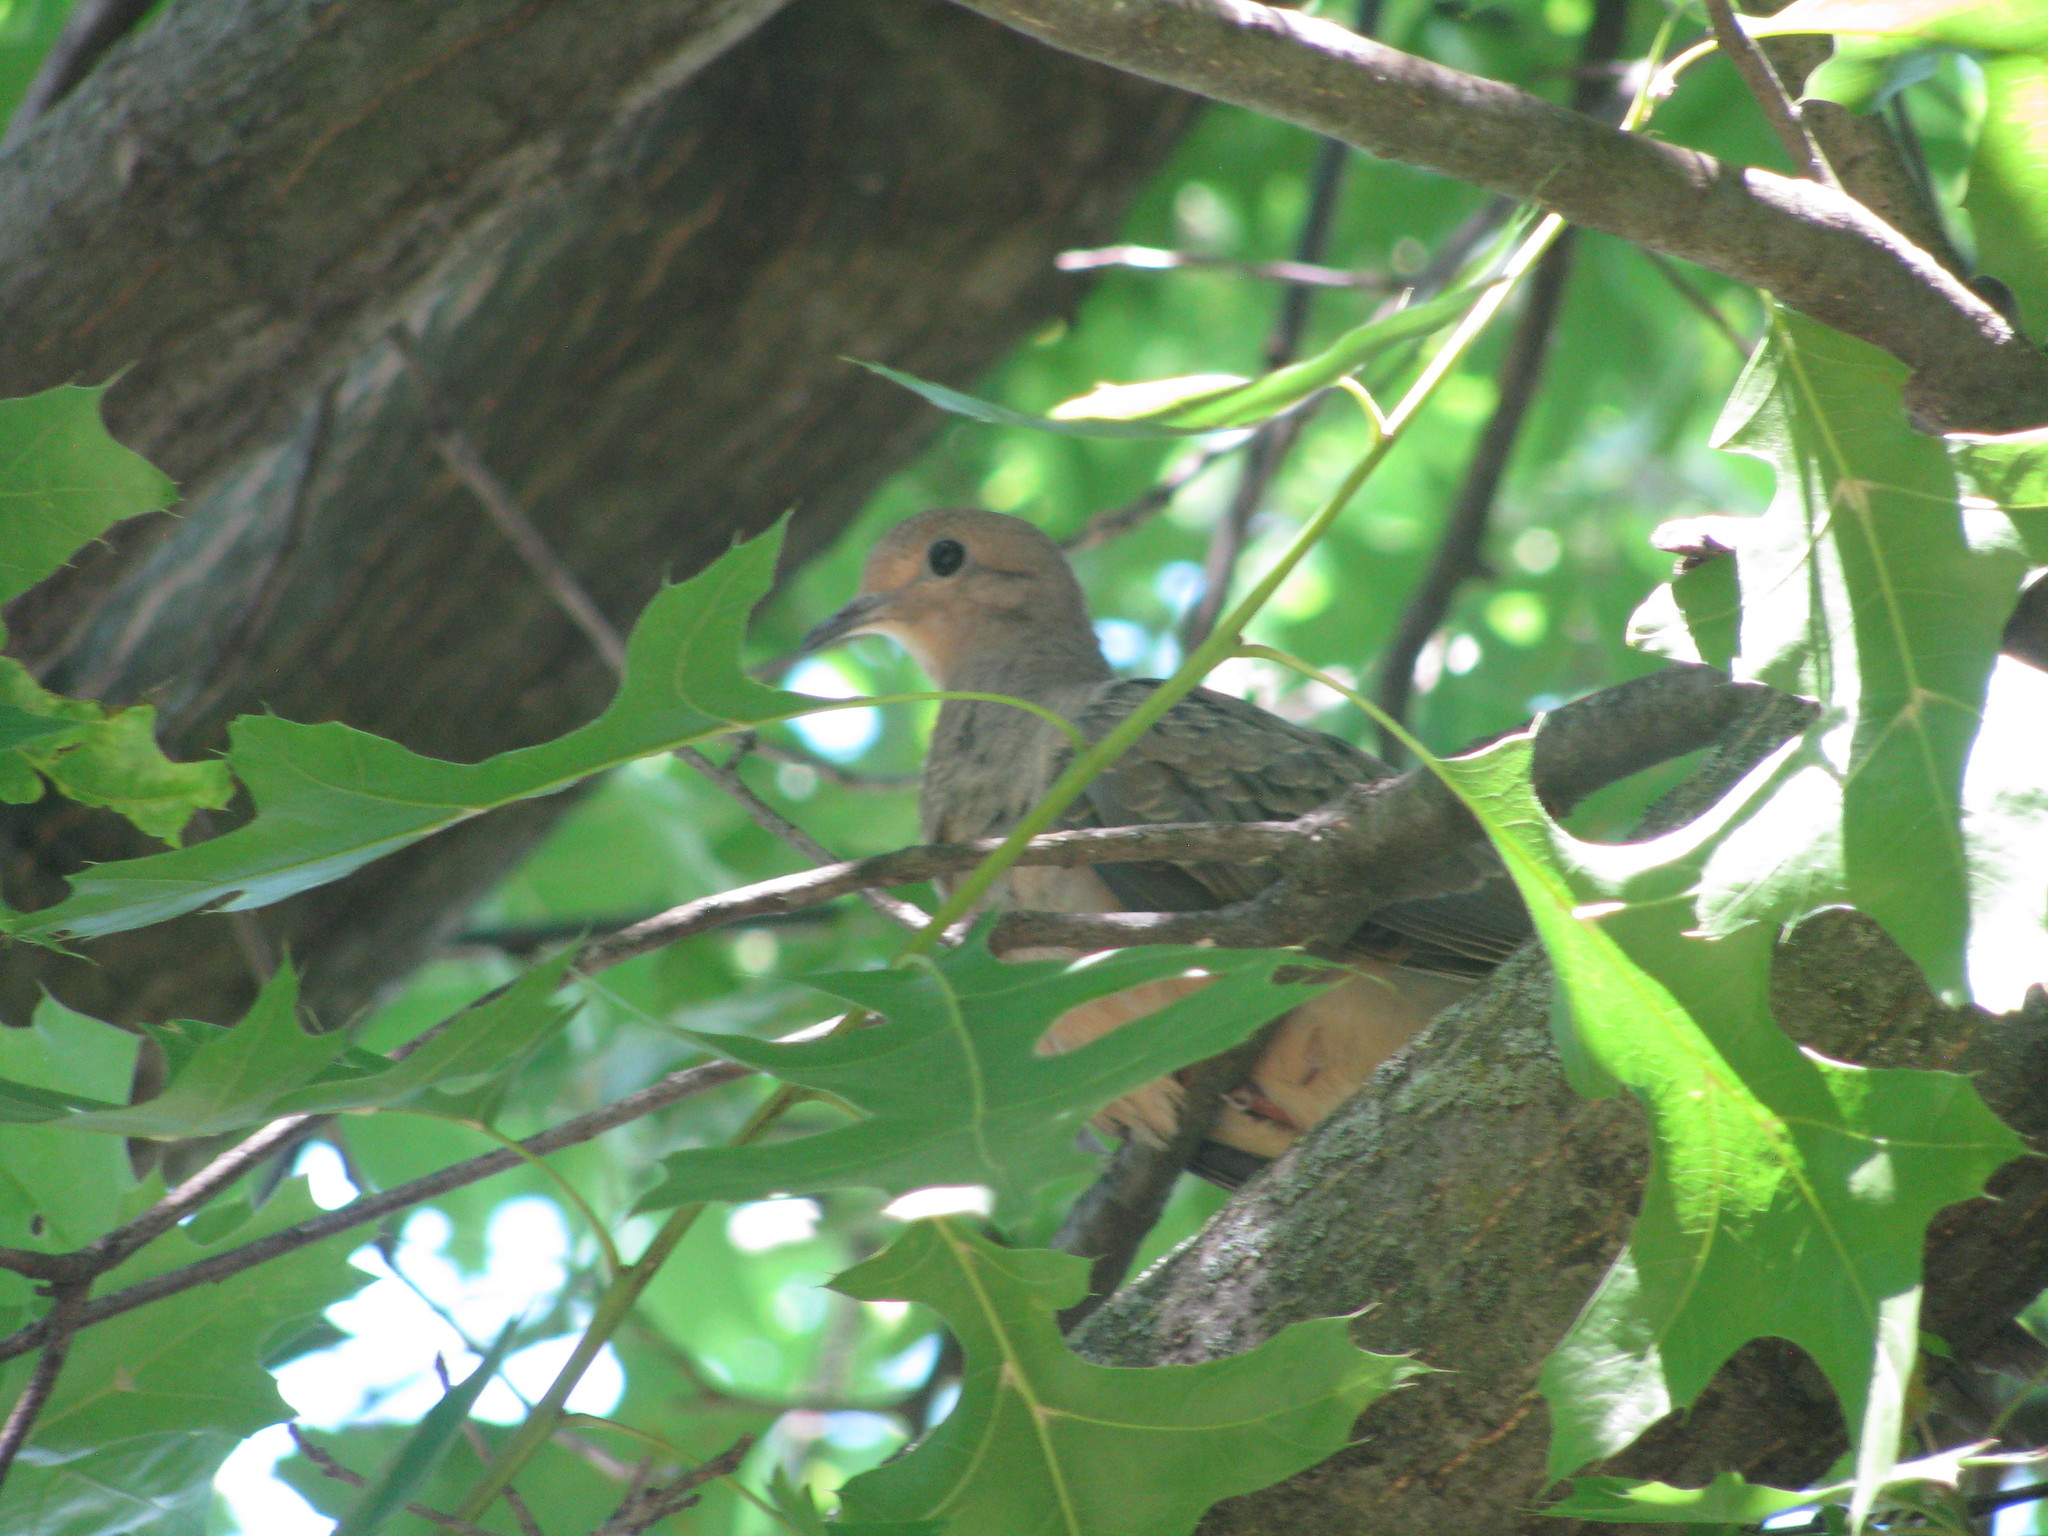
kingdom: Animalia
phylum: Chordata
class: Aves
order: Columbiformes
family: Columbidae
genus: Zenaida
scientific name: Zenaida macroura
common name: Mourning dove
